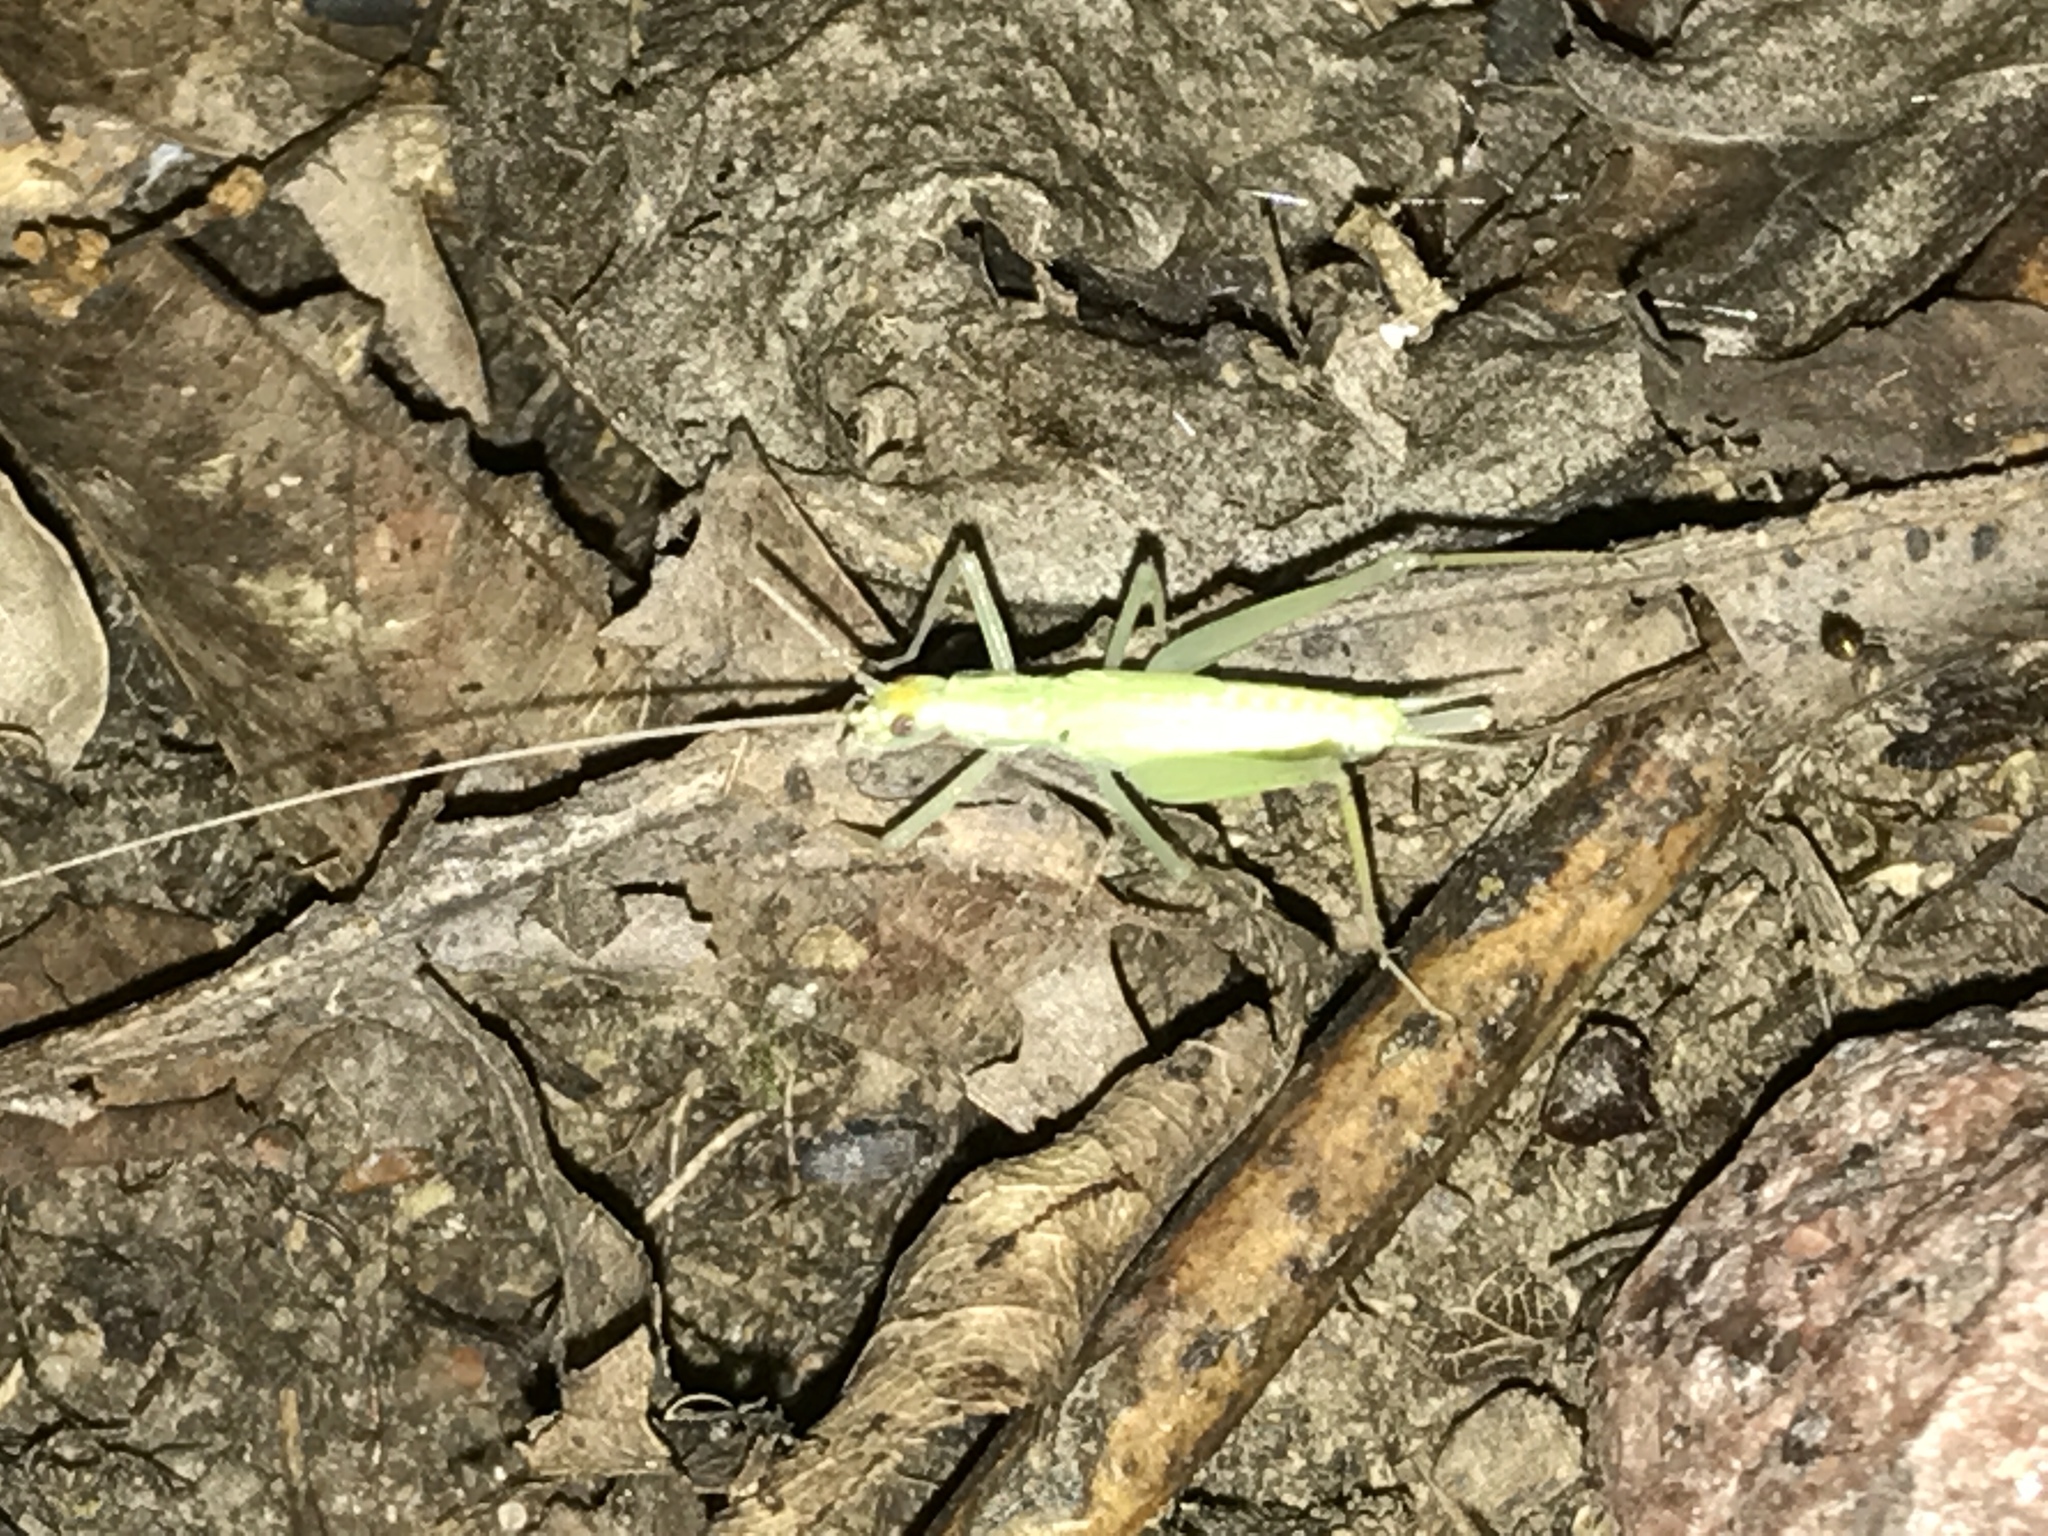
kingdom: Animalia
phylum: Arthropoda
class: Insecta
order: Orthoptera
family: Gryllidae
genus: Oecanthus
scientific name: Oecanthus
